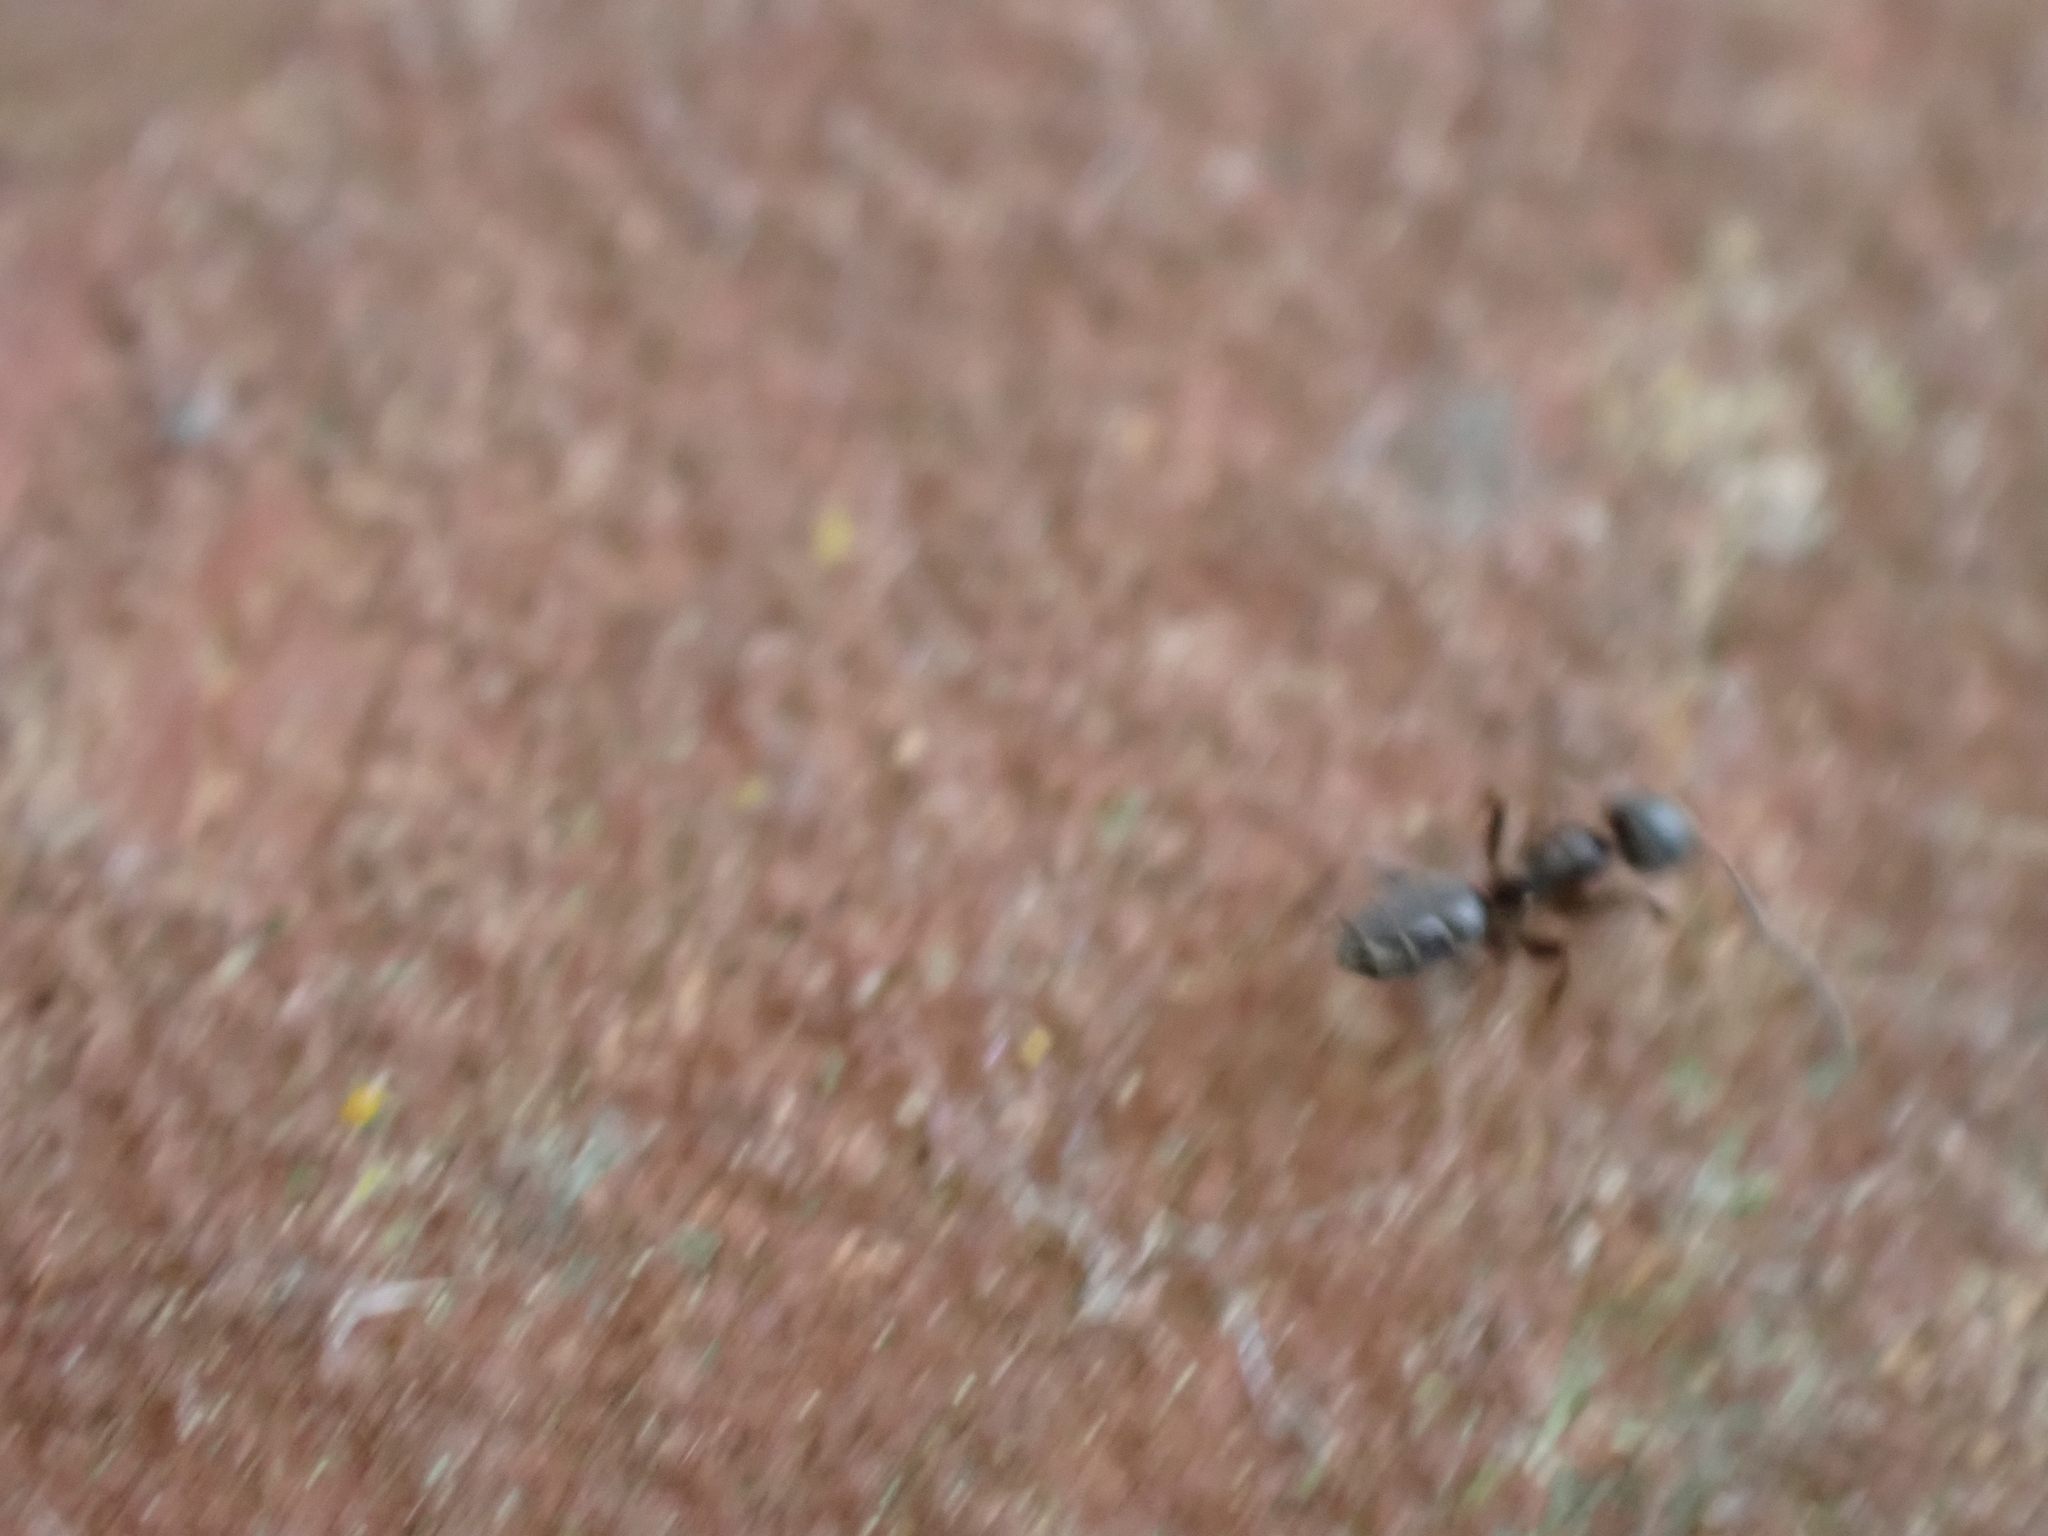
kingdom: Animalia
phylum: Arthropoda
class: Insecta
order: Hymenoptera
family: Formicidae
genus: Tapinoma
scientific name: Tapinoma sessile
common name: Odorous house ant
